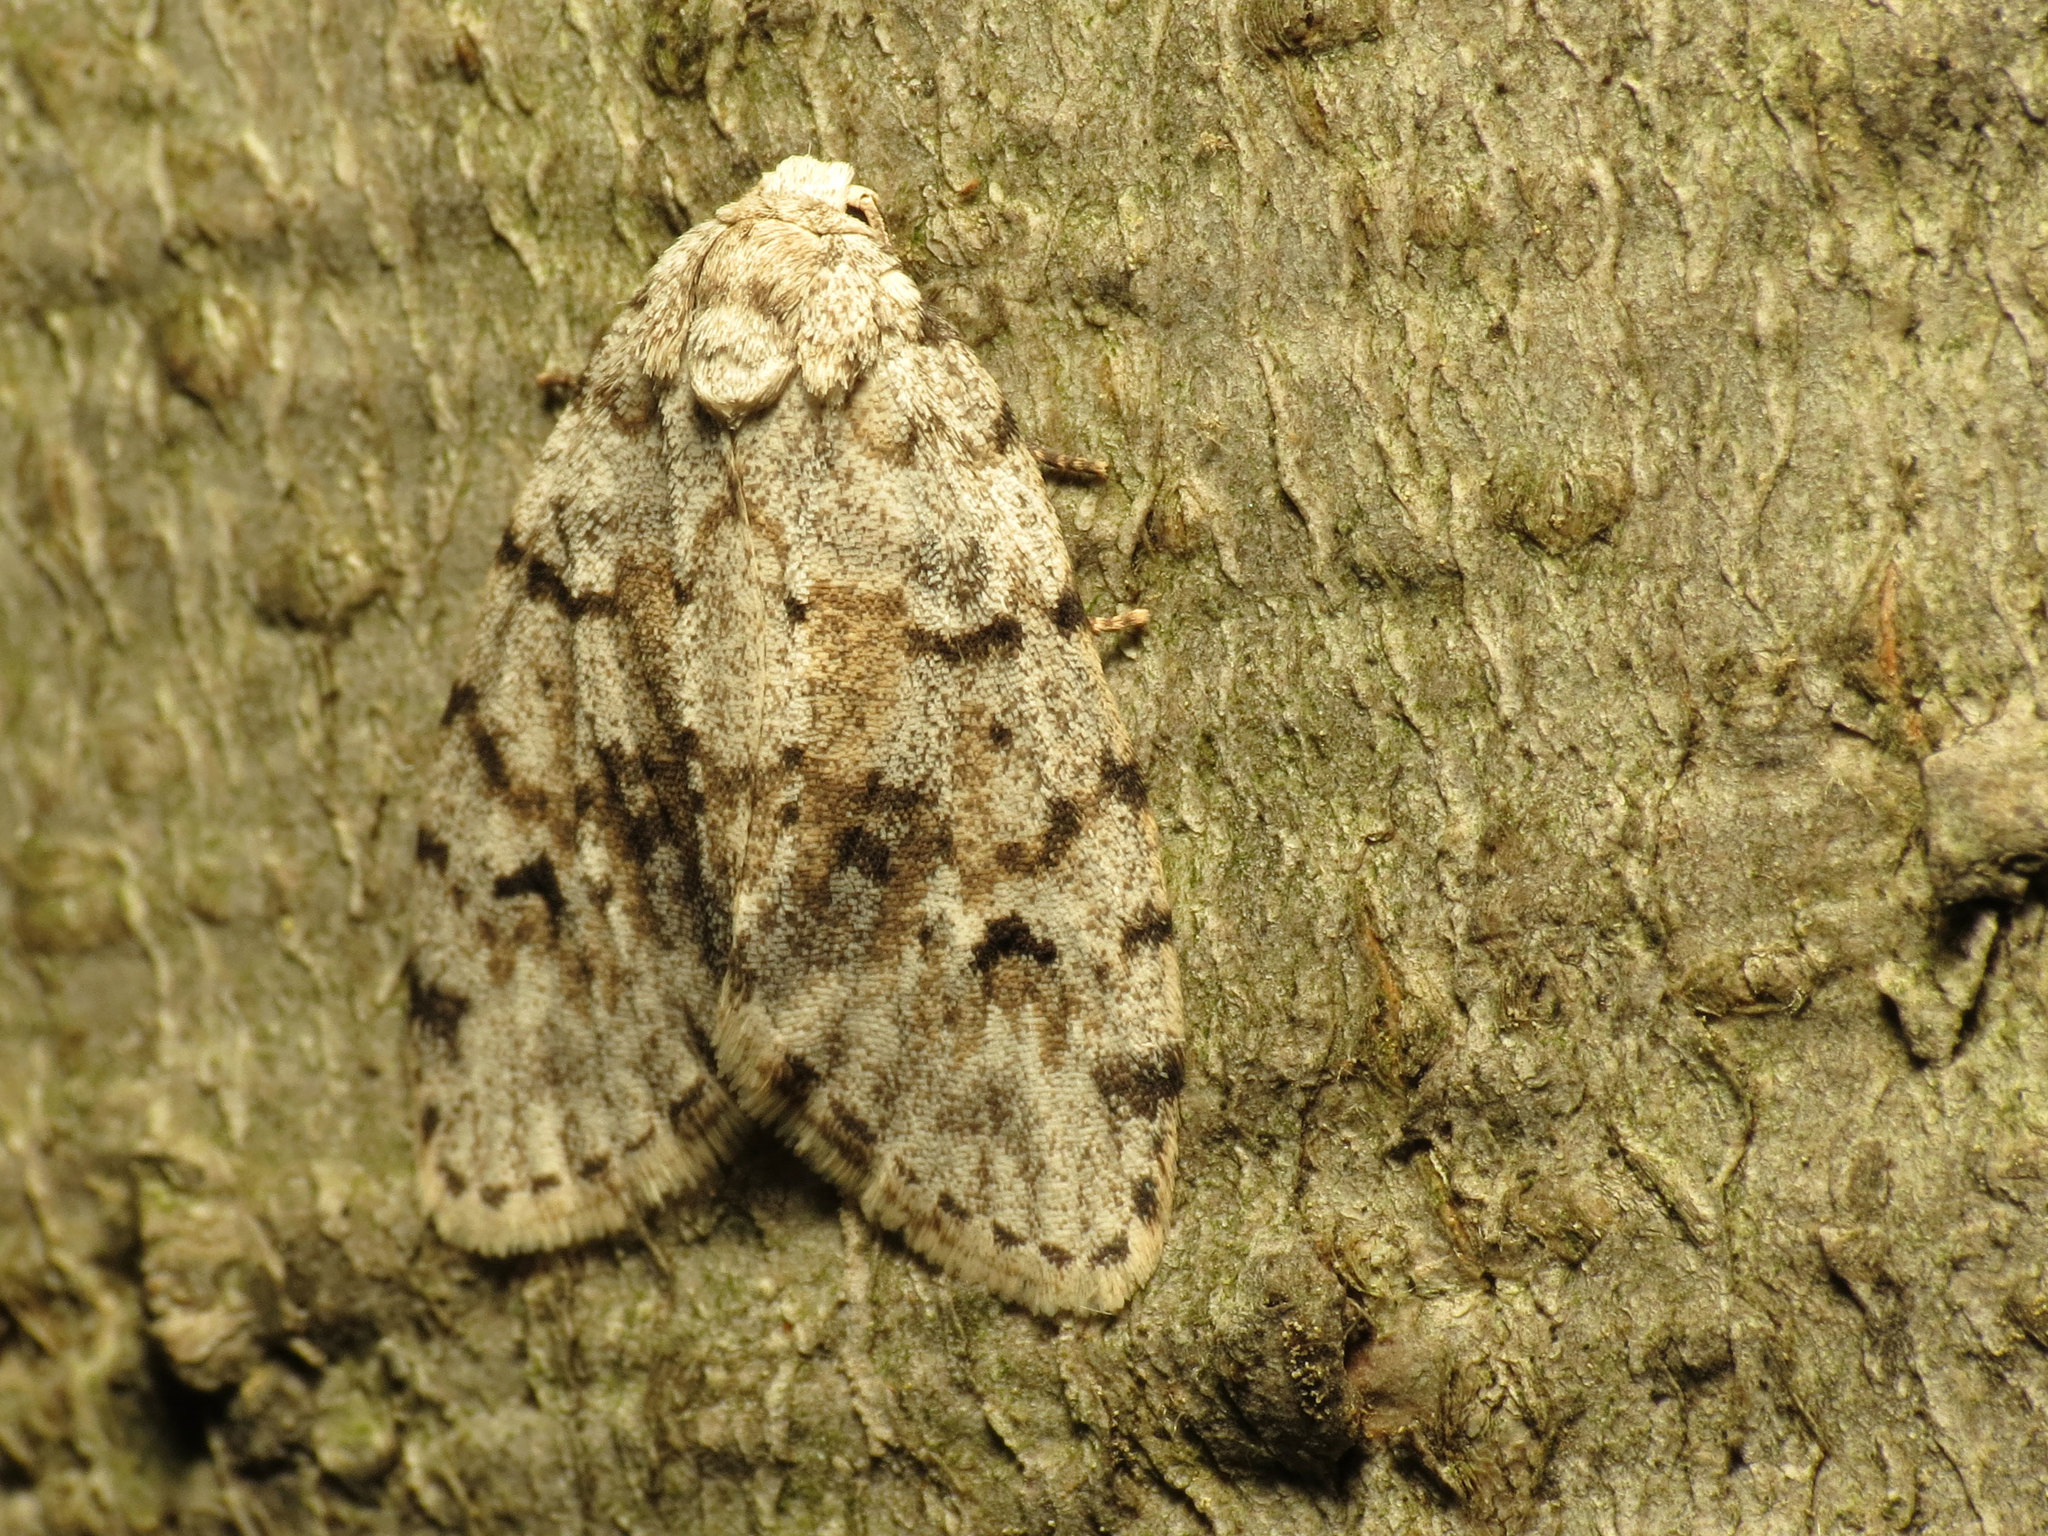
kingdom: Animalia
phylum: Arthropoda
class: Insecta
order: Lepidoptera
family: Erebidae
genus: Clemensia
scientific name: Clemensia albata
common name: Little white lichen moth
